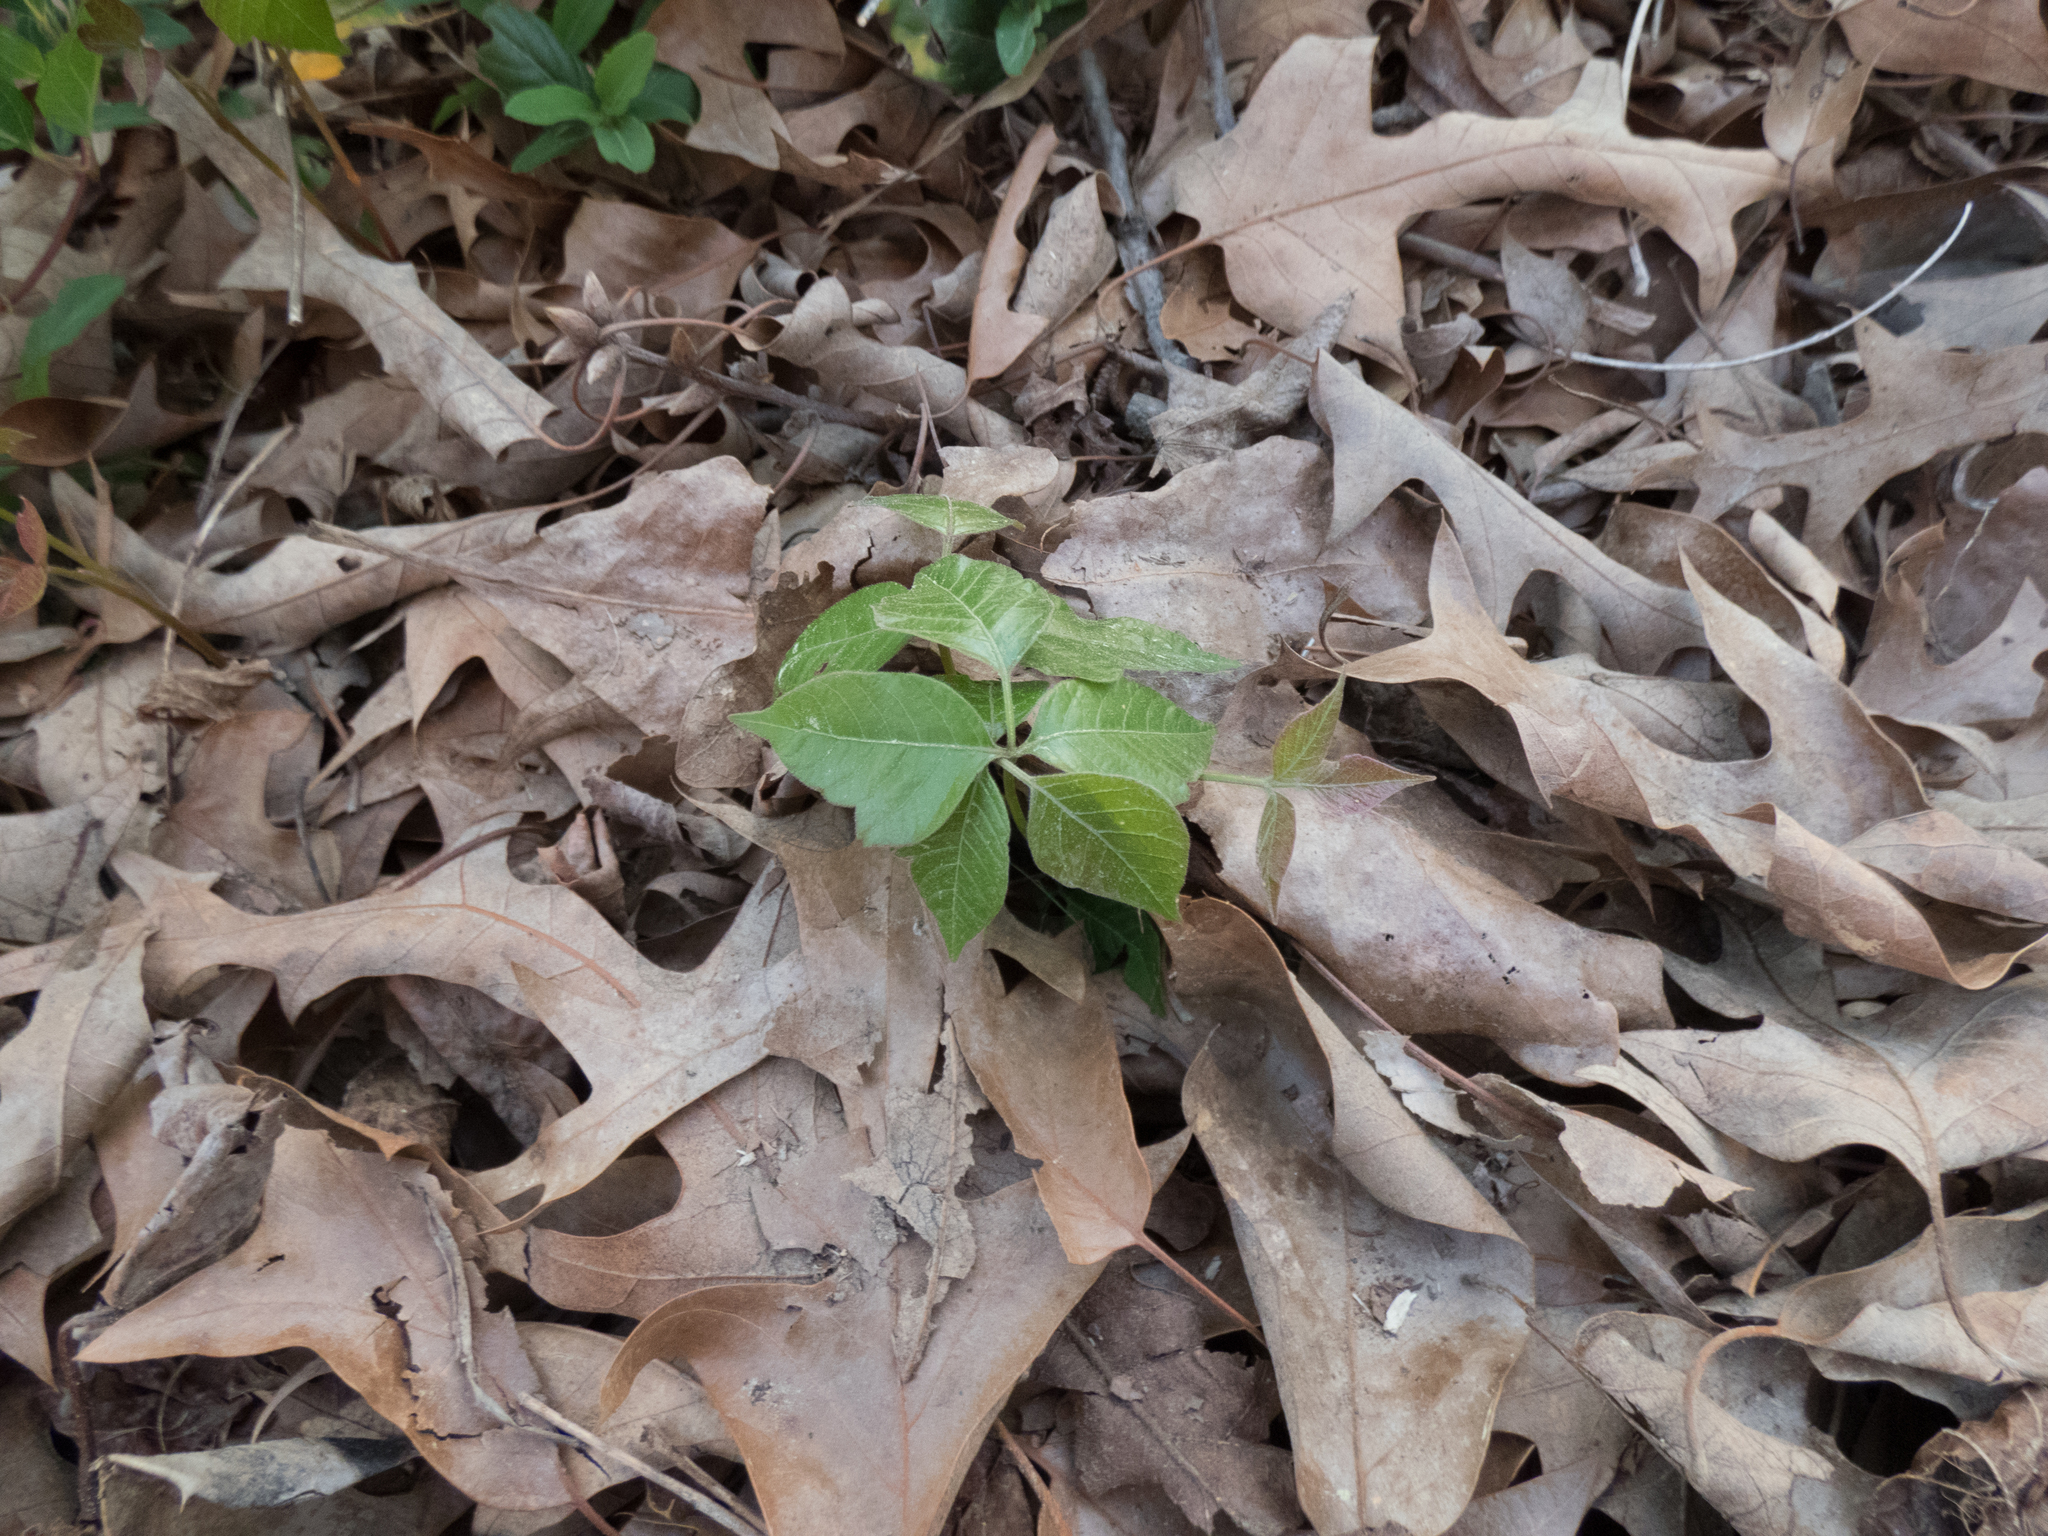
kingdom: Plantae
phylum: Tracheophyta
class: Magnoliopsida
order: Sapindales
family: Anacardiaceae
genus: Toxicodendron
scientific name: Toxicodendron radicans
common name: Poison ivy
